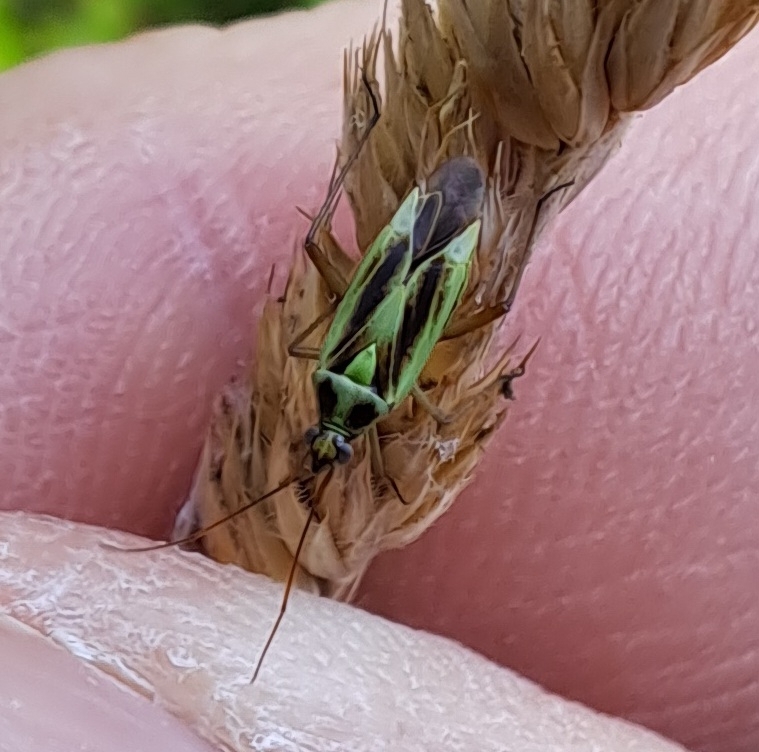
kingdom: Animalia
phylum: Arthropoda
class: Insecta
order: Hemiptera
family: Miridae
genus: Stenotus
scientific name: Stenotus binotatus
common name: Plant bug
